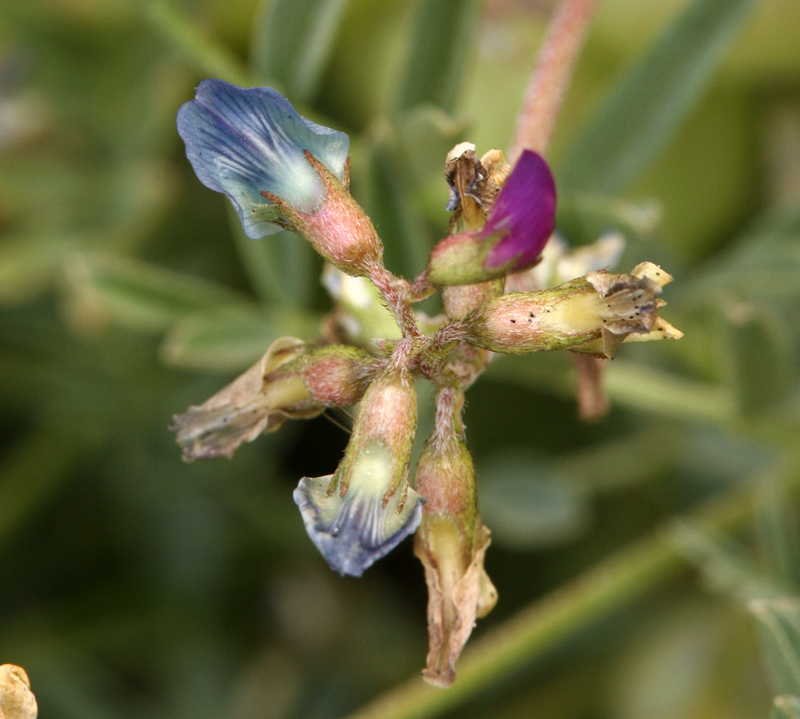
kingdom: Plantae
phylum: Tracheophyta
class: Magnoliopsida
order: Fabales
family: Fabaceae
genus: Astragalus
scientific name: Astragalus lentiginosus
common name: Freckled milkvetch
